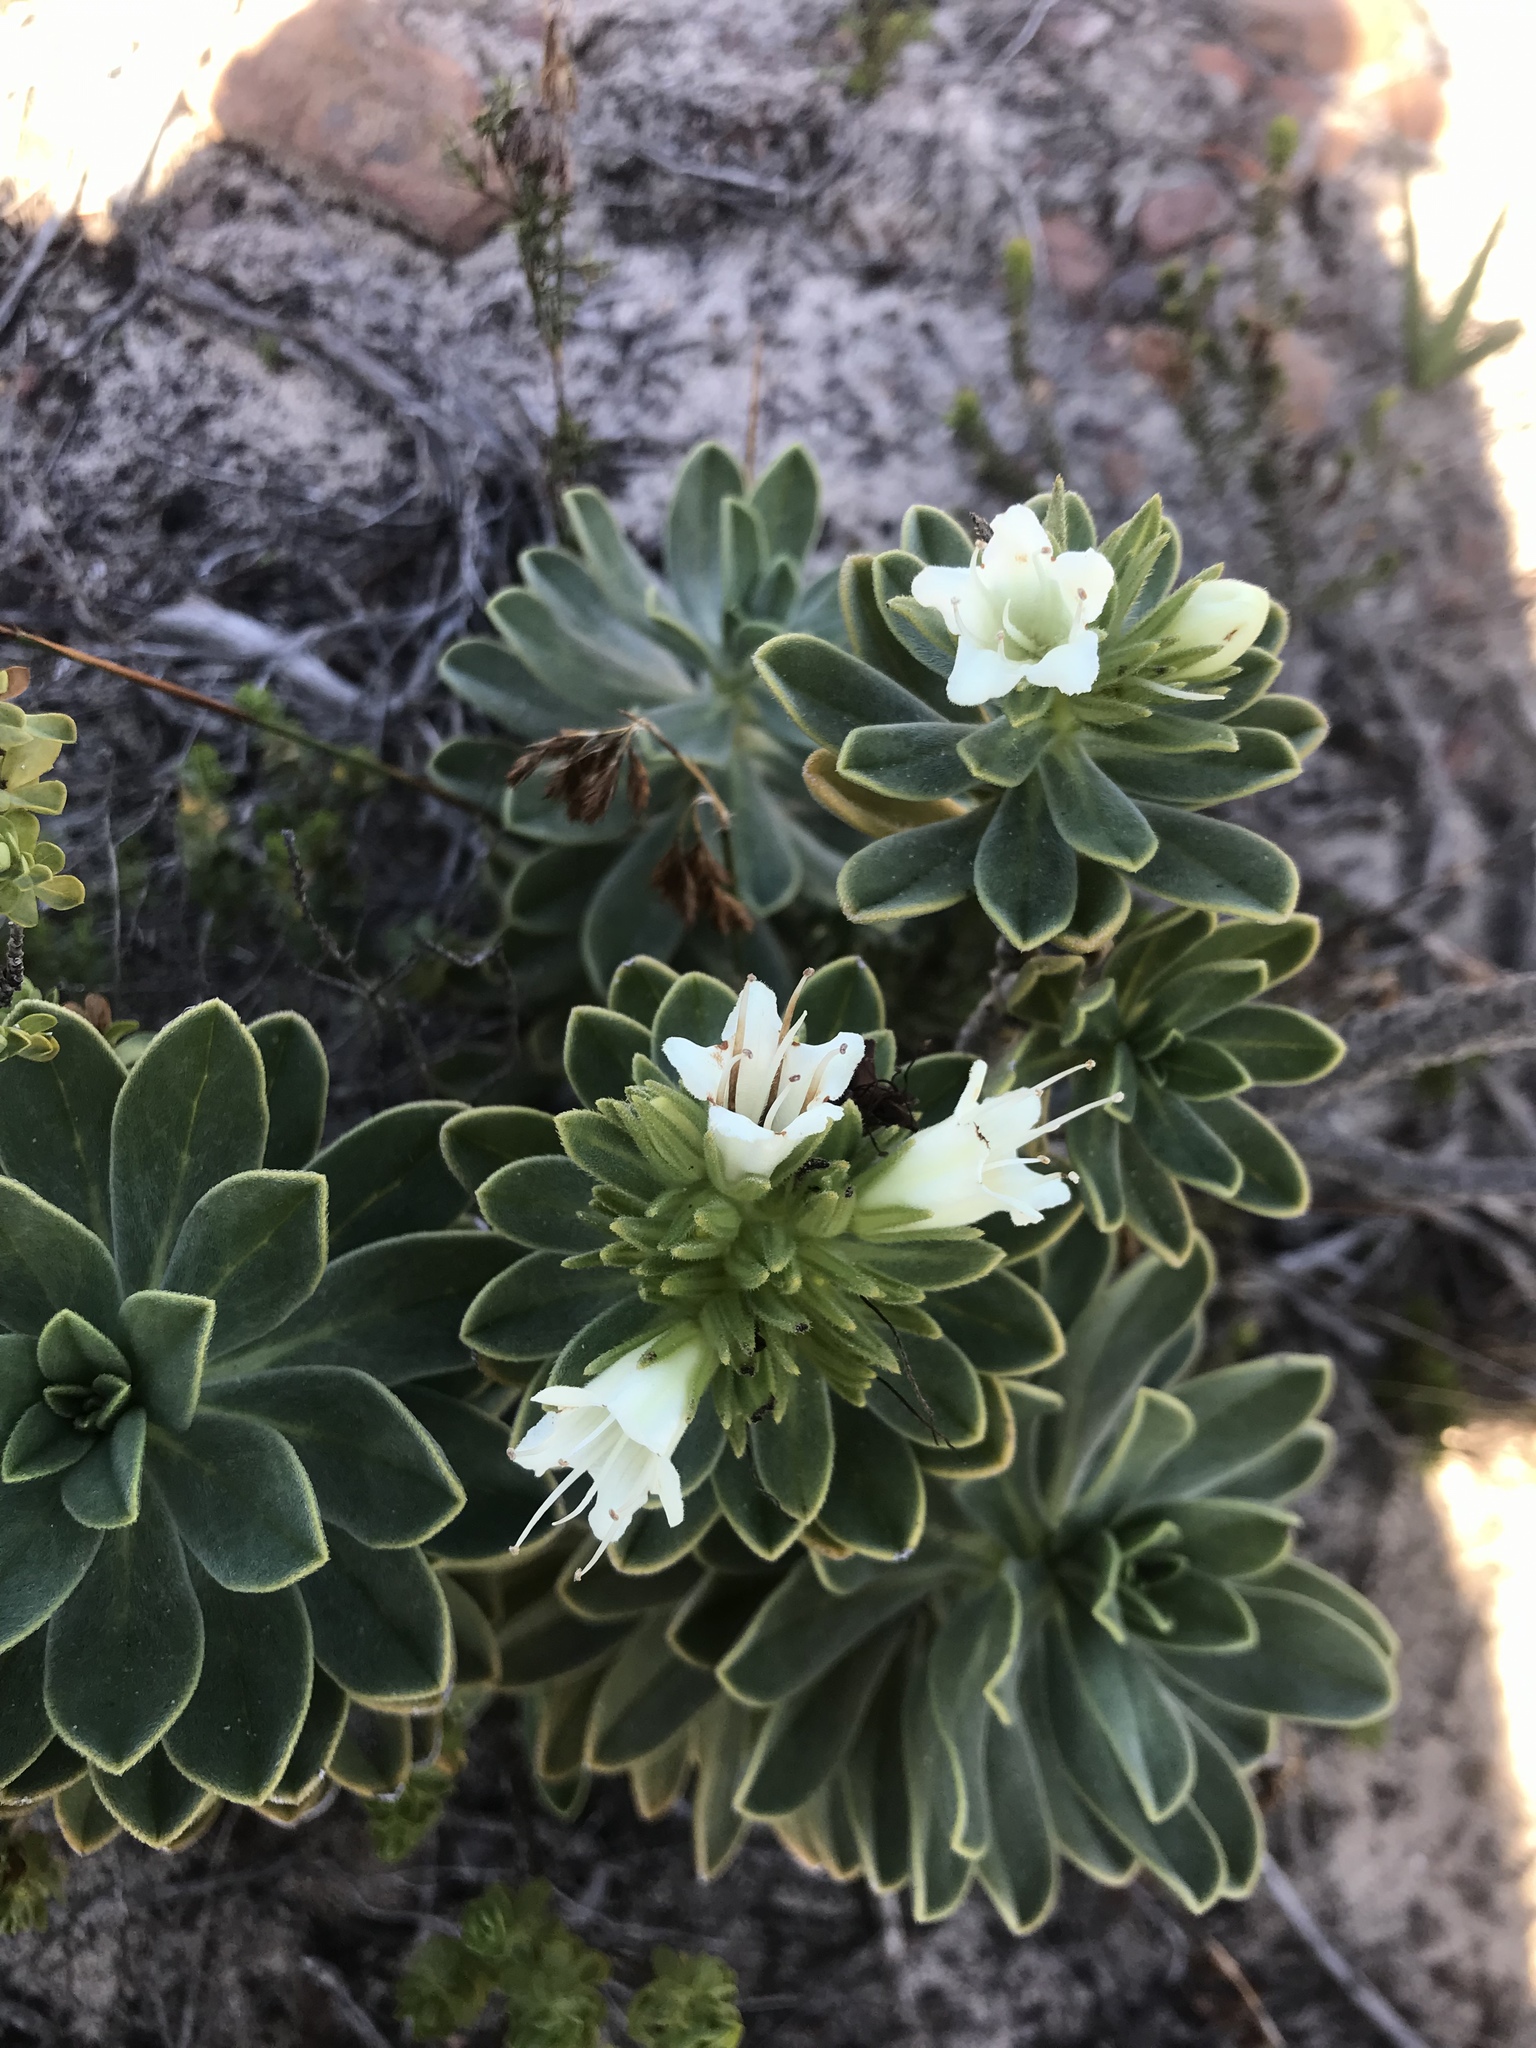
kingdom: Plantae
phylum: Tracheophyta
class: Magnoliopsida
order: Boraginales
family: Boraginaceae
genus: Lobostemon
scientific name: Lobostemon montanus
